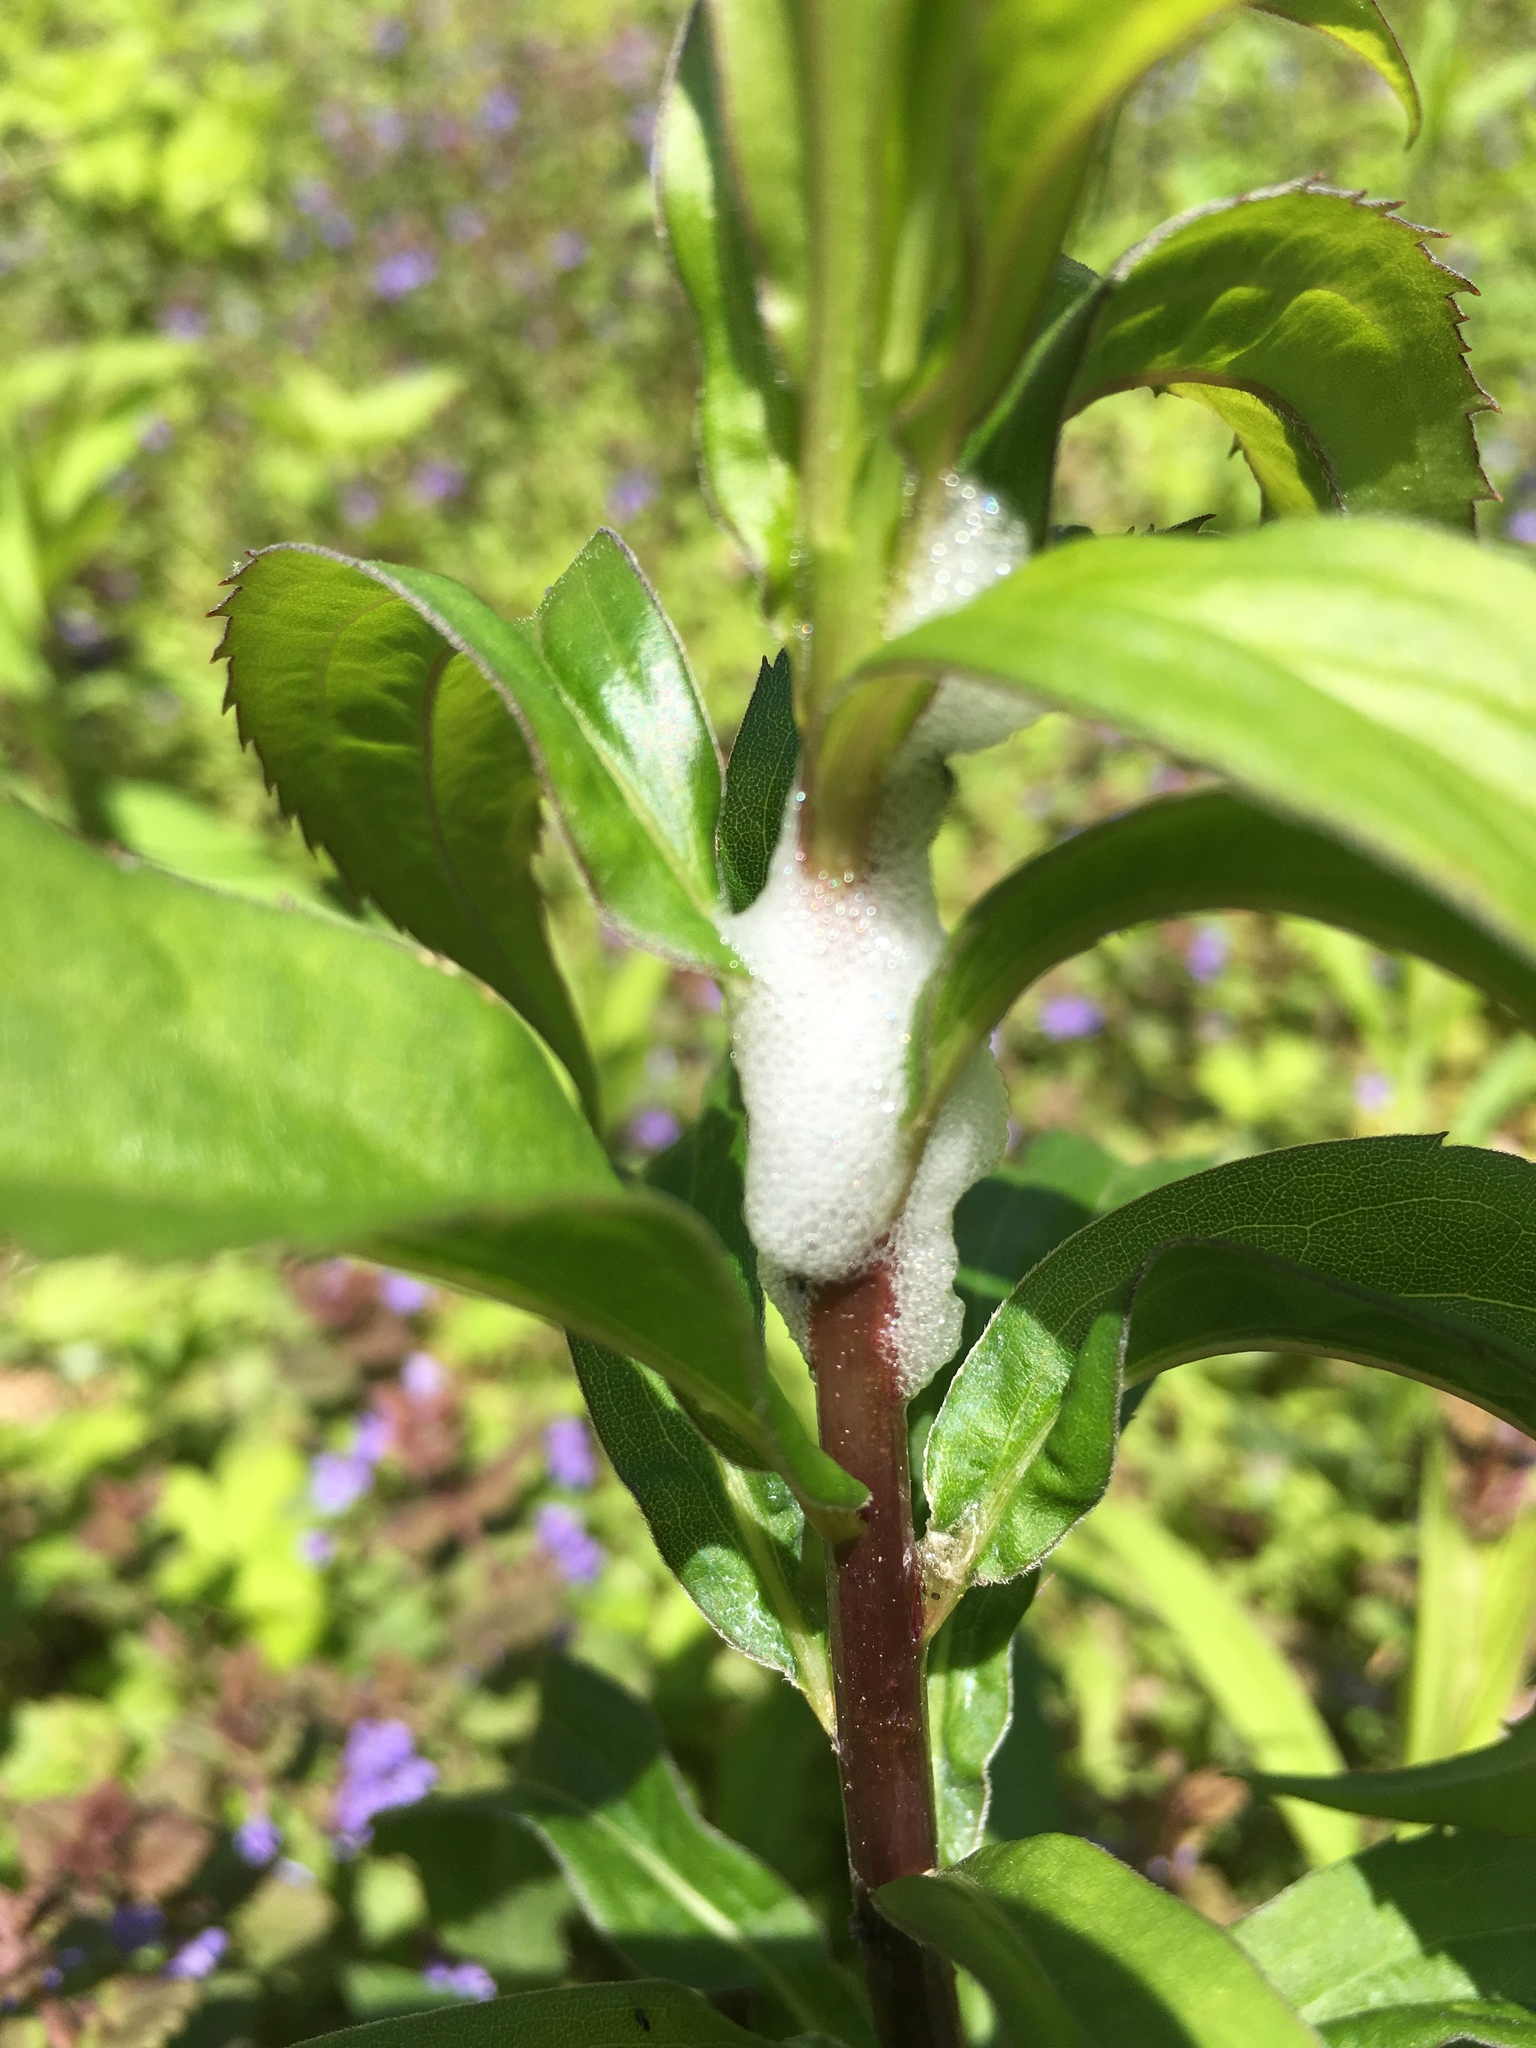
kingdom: Animalia
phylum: Arthropoda
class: Insecta
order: Hemiptera
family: Aphrophoridae
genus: Philaenus
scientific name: Philaenus spumarius
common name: Meadow spittlebug
